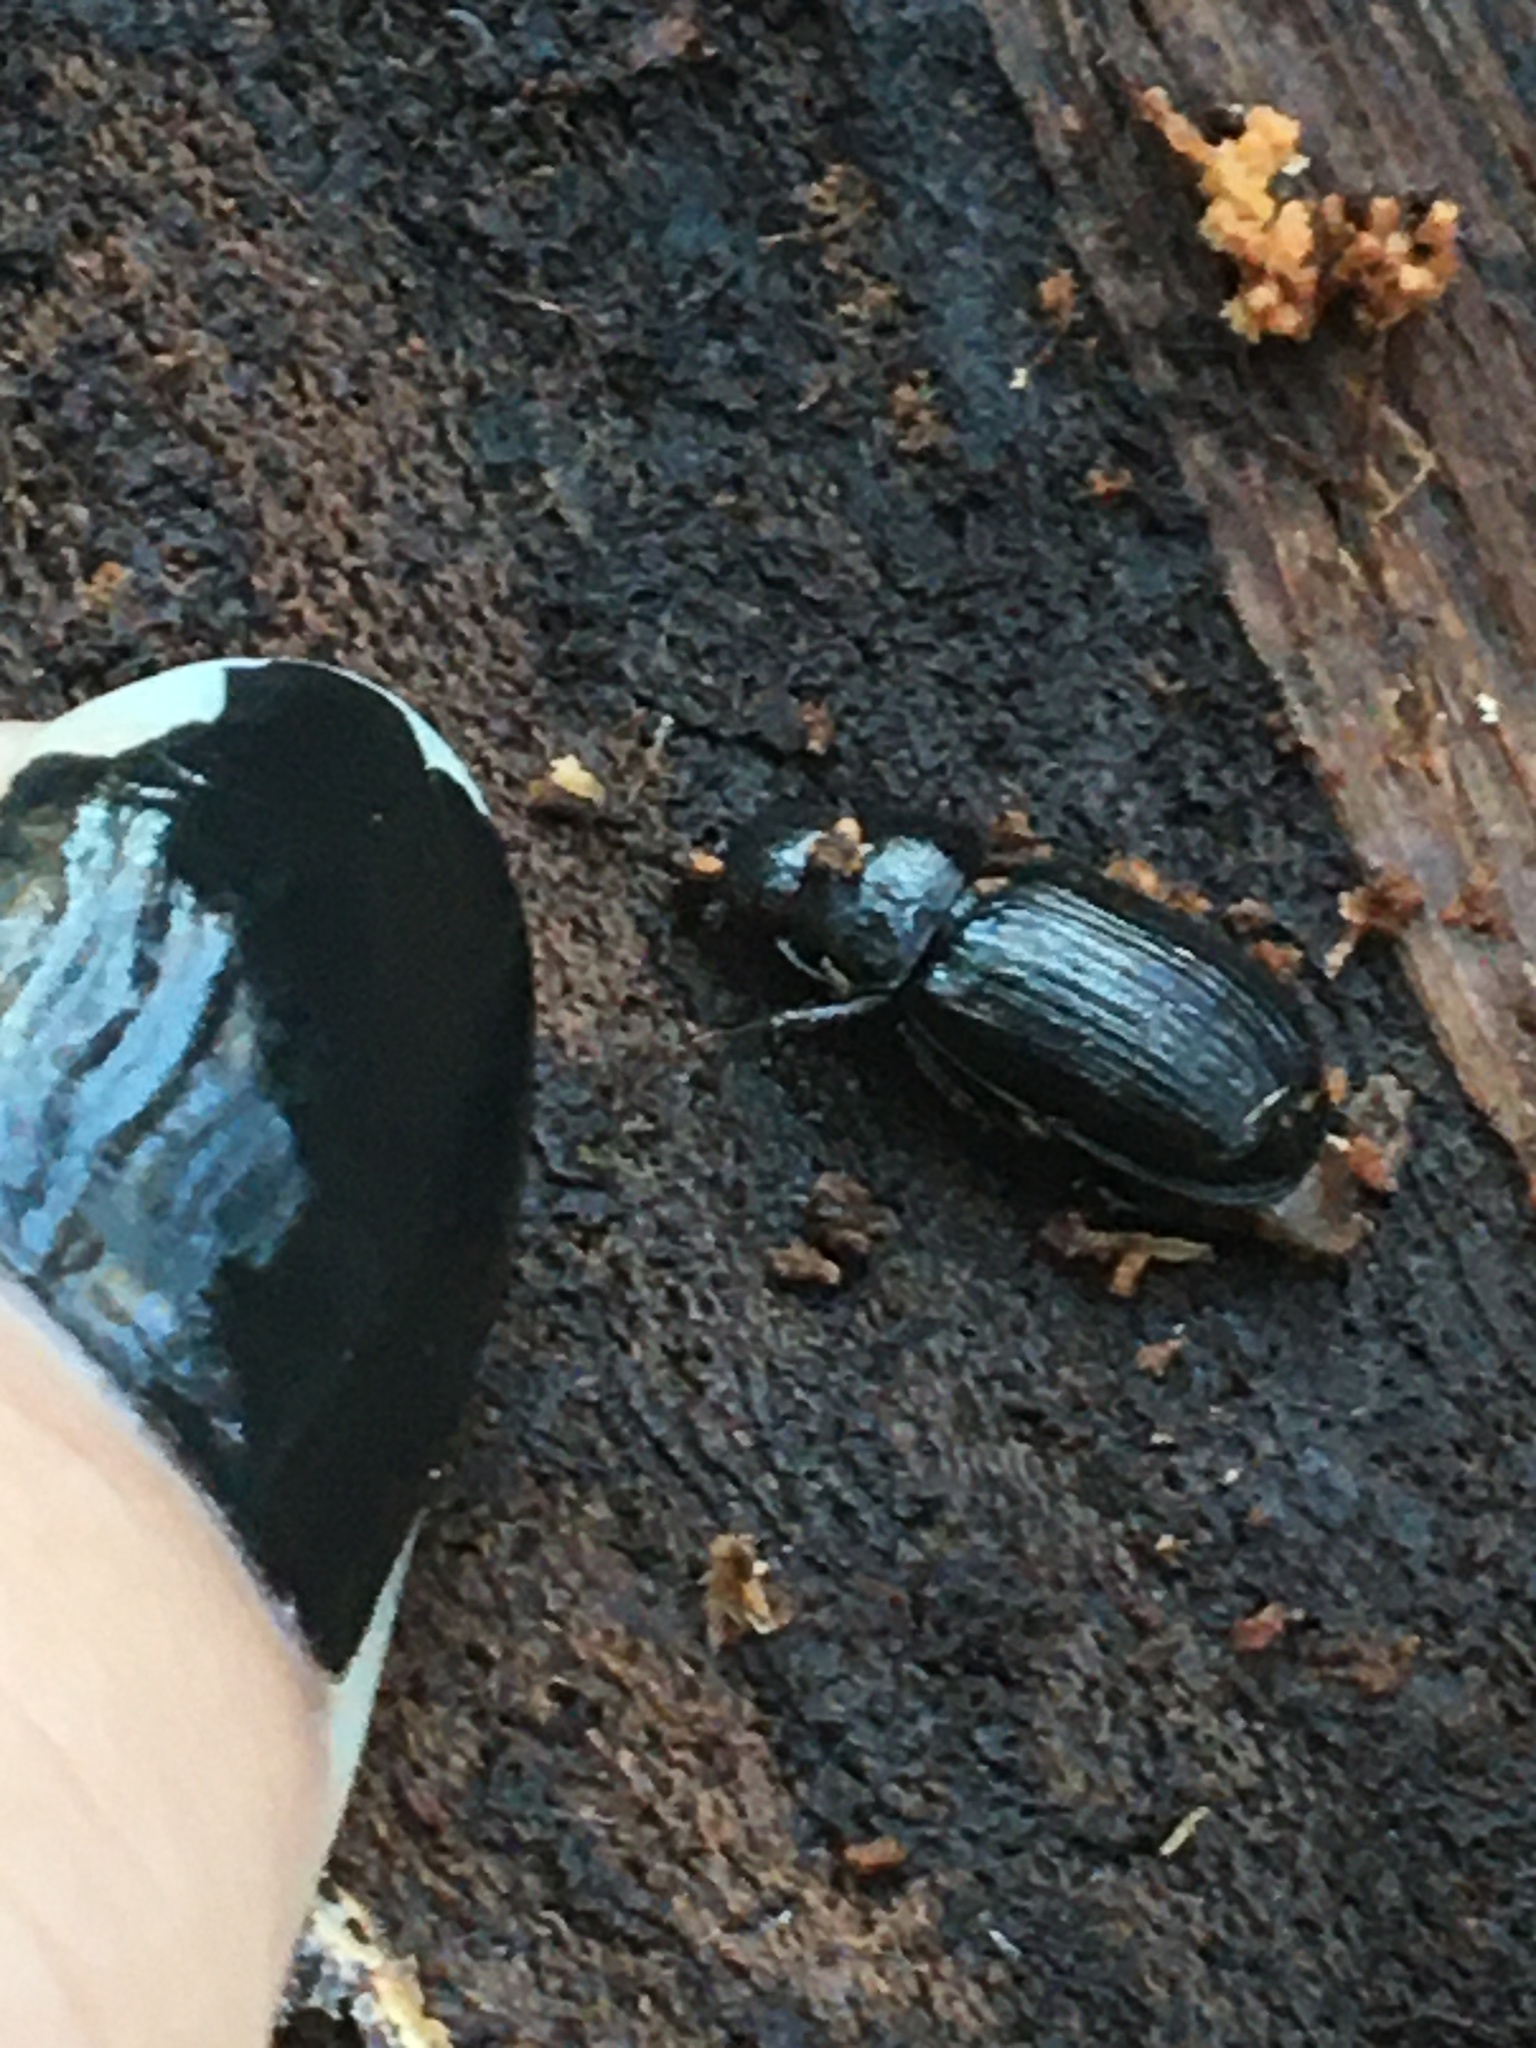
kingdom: Animalia
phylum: Arthropoda
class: Insecta
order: Coleoptera
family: Lucanidae
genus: Ceruchus
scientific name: Ceruchus piceus
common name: Red-rot decay stag beetle
